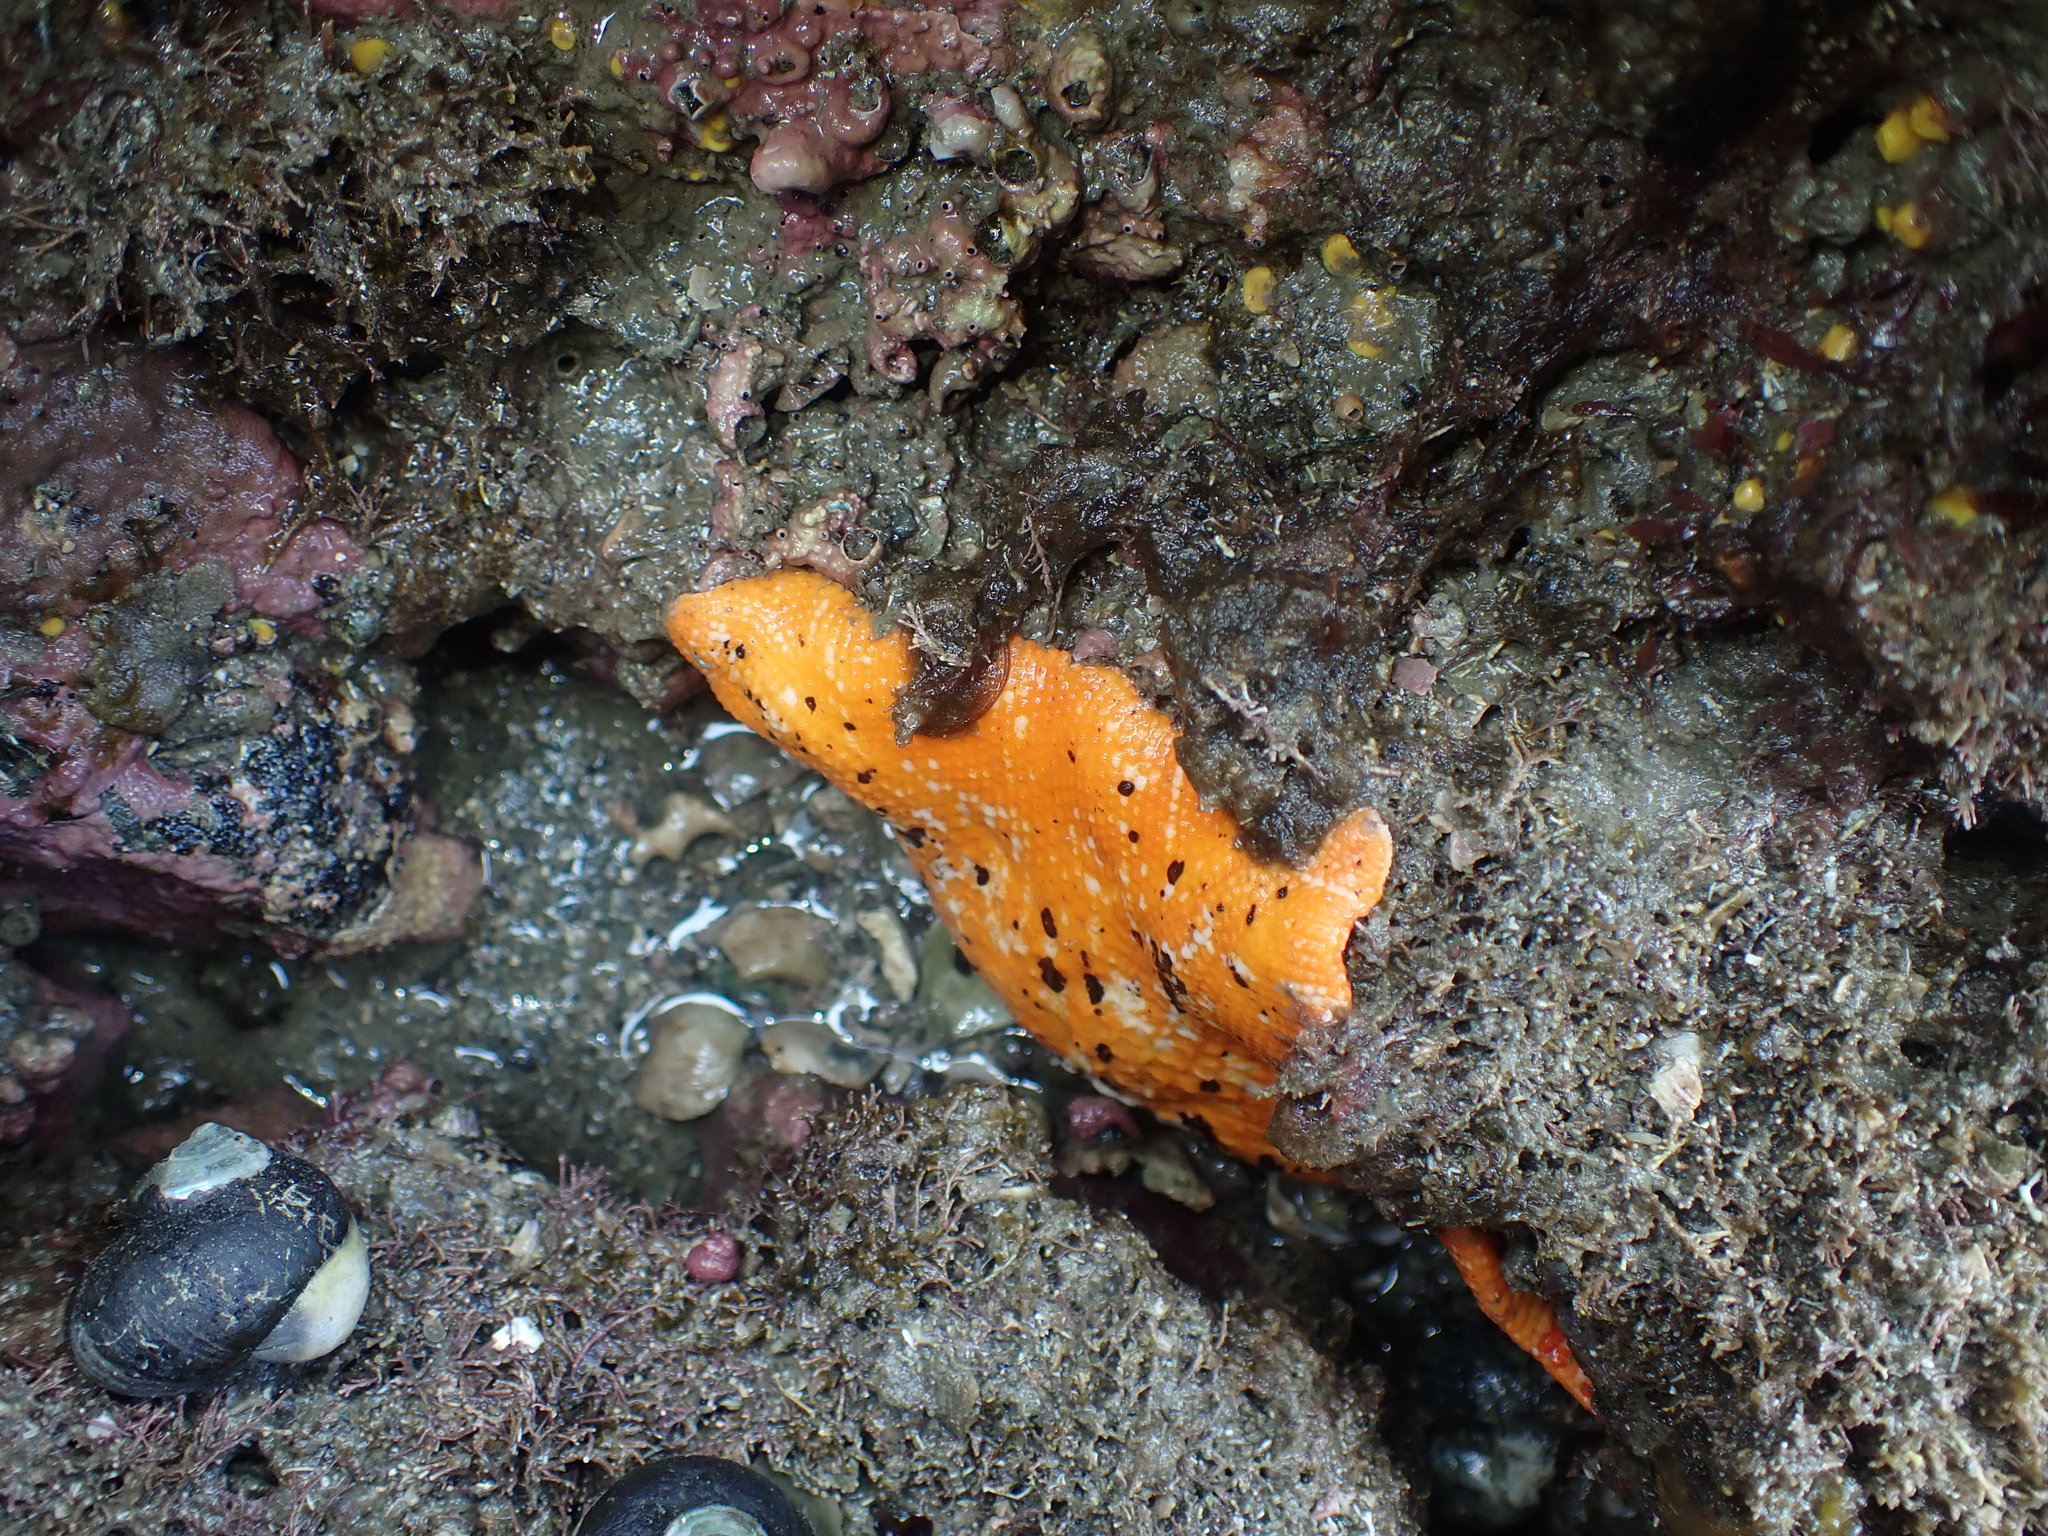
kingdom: Animalia
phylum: Echinodermata
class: Asteroidea
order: Valvatida
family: Asterinidae
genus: Stegnaster
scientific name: Stegnaster inflatus
